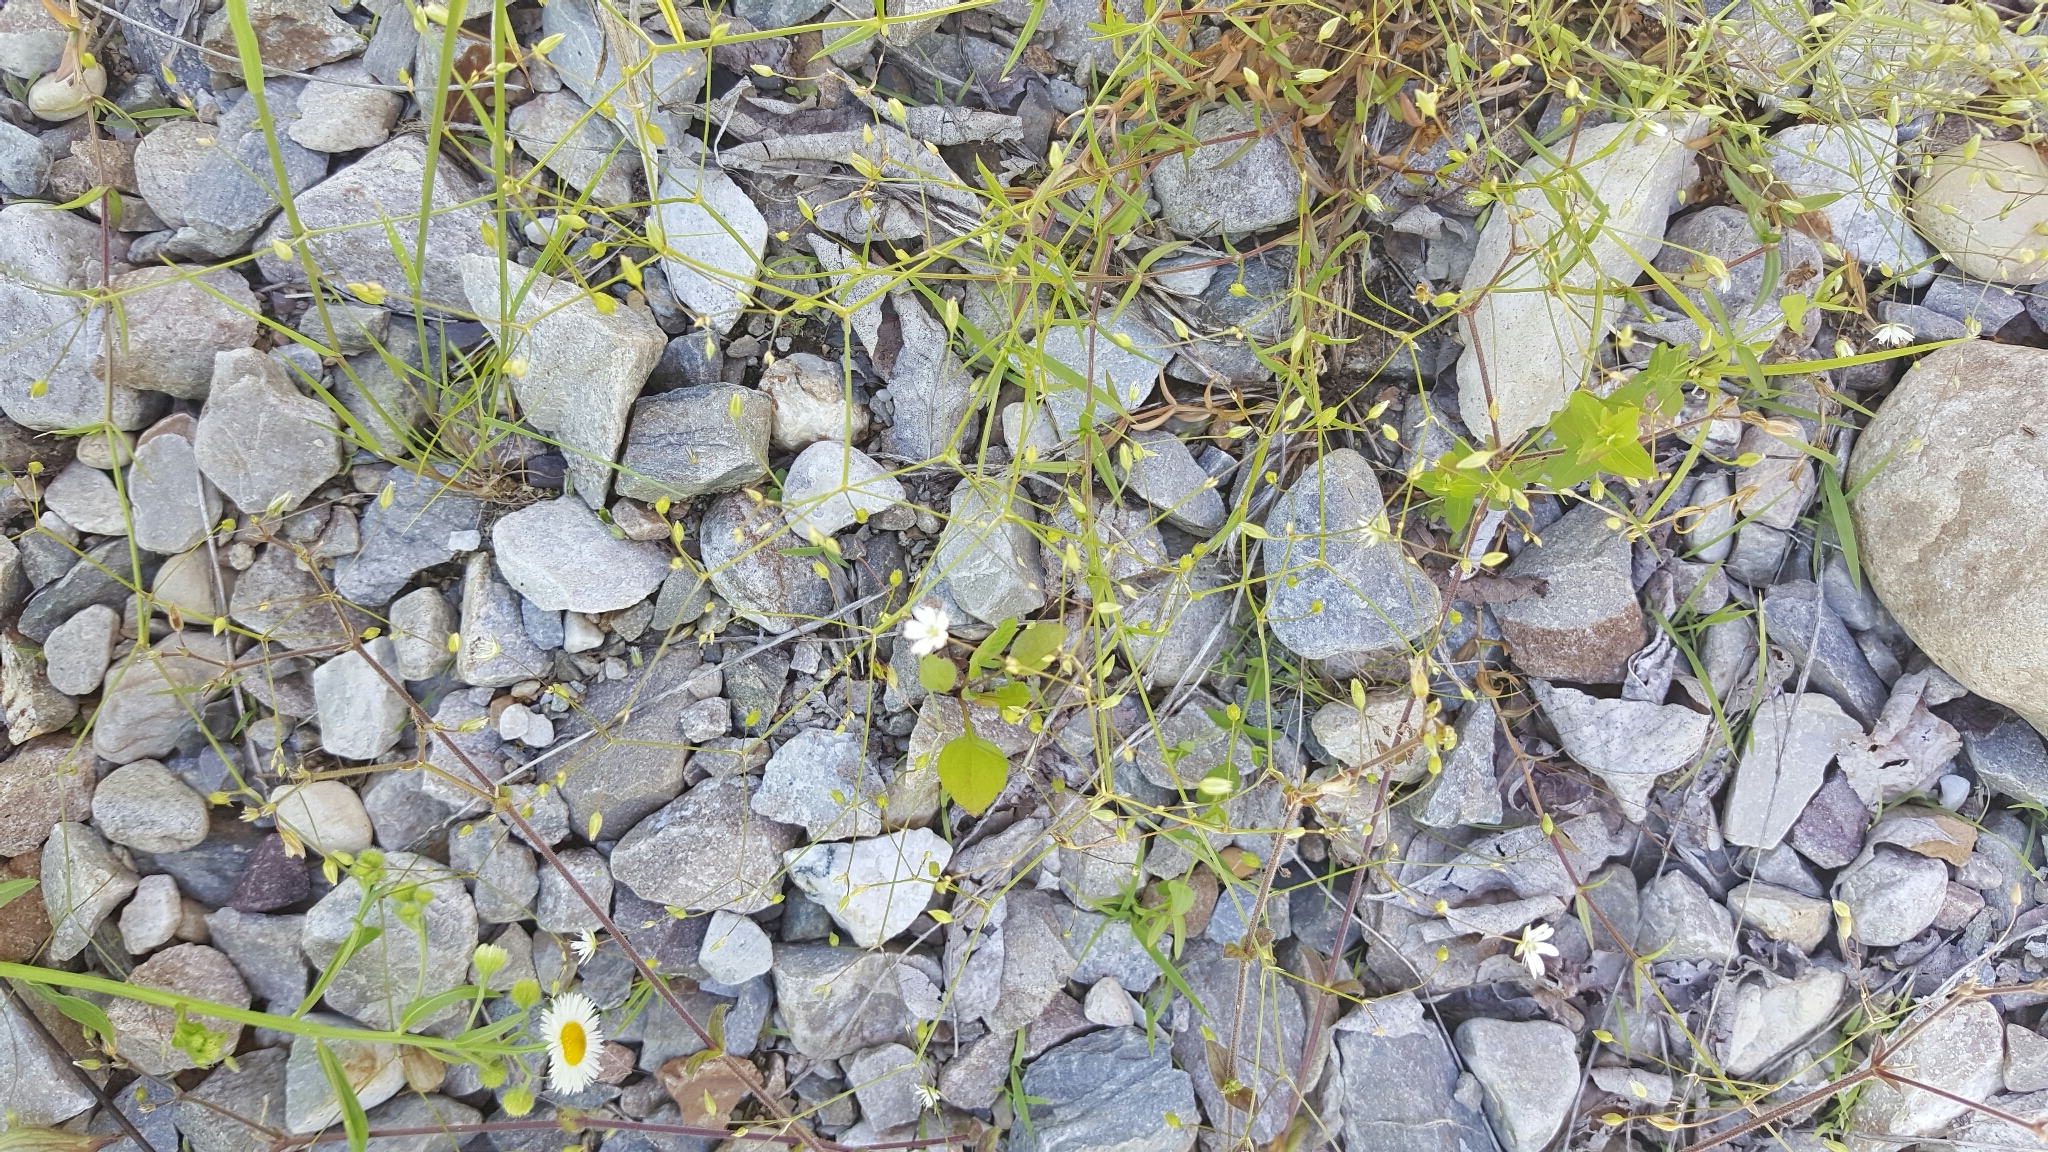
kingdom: Plantae
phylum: Tracheophyta
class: Magnoliopsida
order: Caryophyllales
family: Caryophyllaceae
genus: Cerastium
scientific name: Cerastium fontanum
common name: Common mouse-ear
